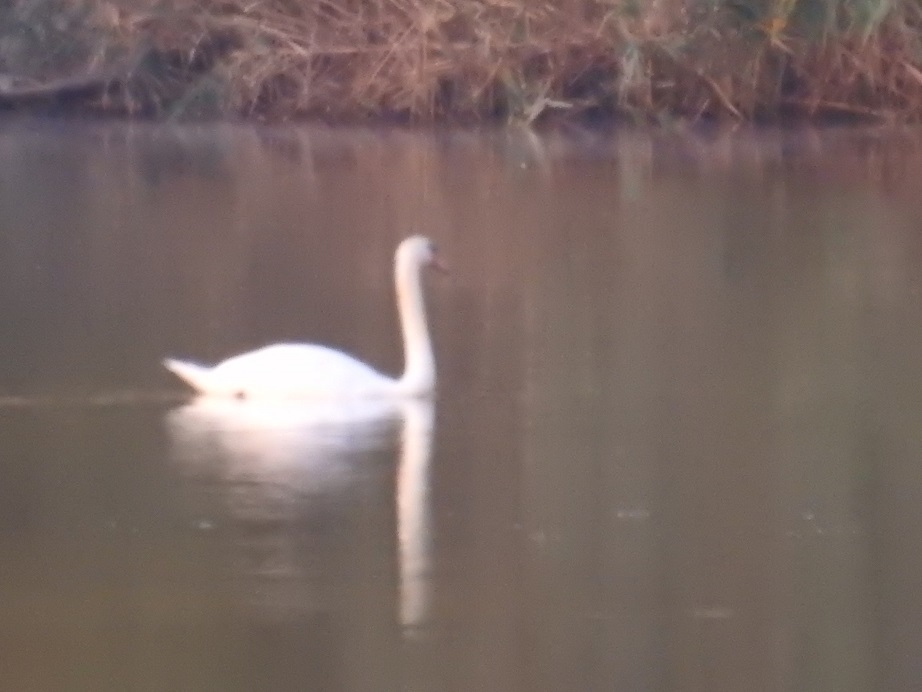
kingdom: Animalia
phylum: Chordata
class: Aves
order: Anseriformes
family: Anatidae
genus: Cygnus
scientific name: Cygnus olor
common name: Mute swan
